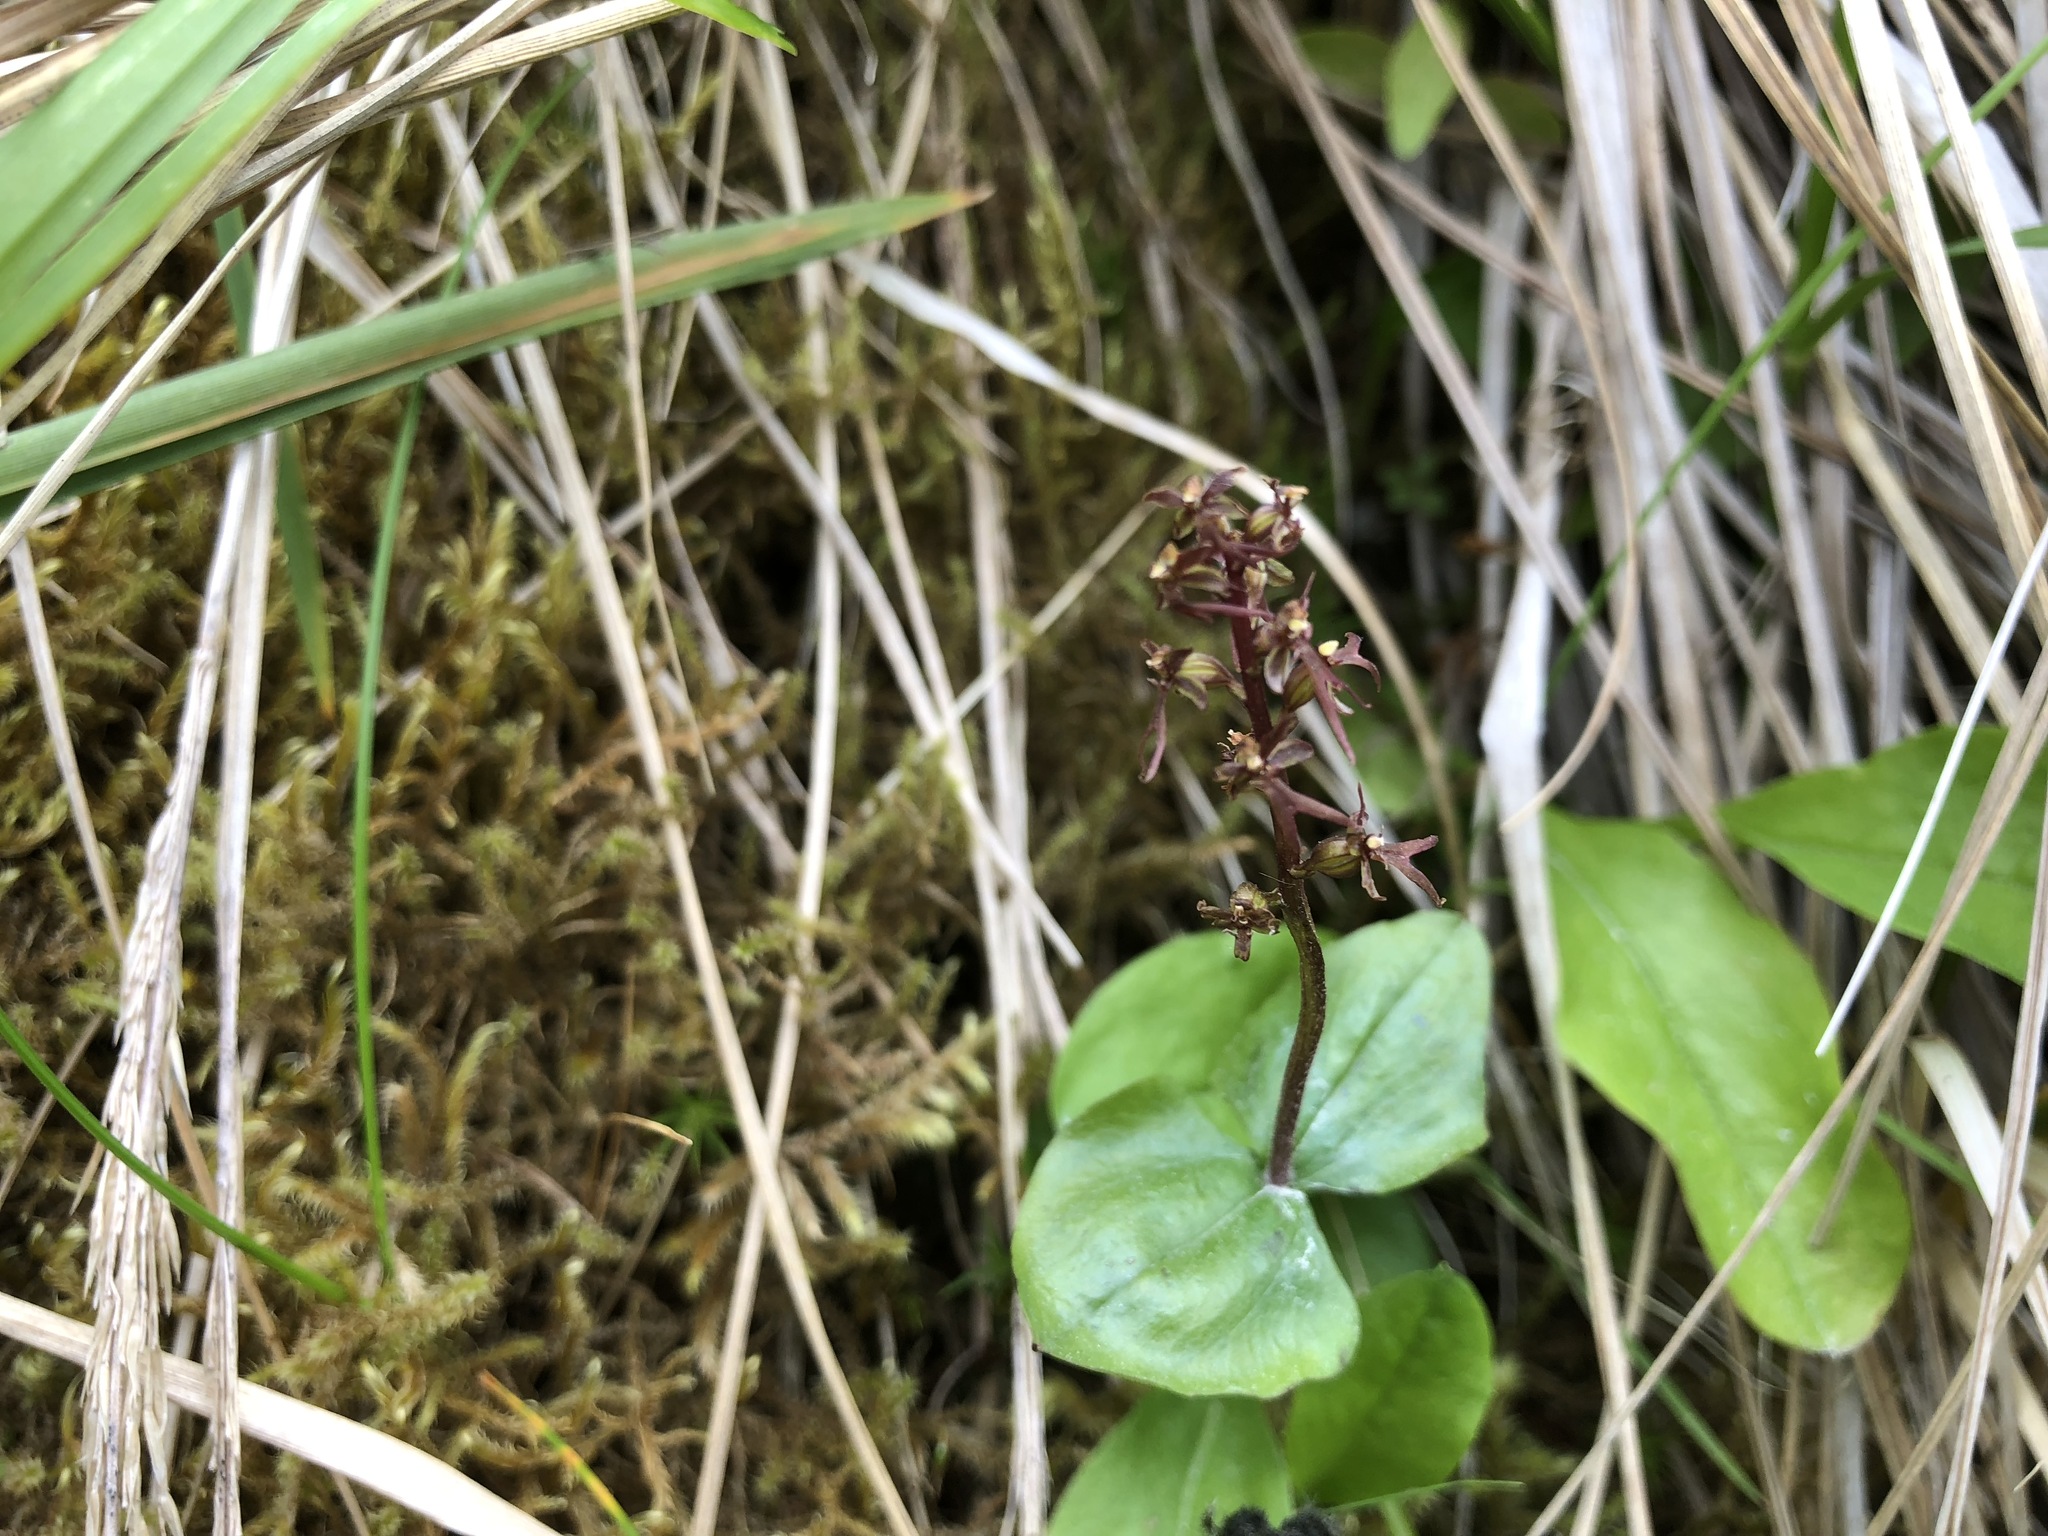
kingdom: Plantae
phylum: Tracheophyta
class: Liliopsida
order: Asparagales
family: Orchidaceae
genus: Neottia
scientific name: Neottia cordata
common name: Lesser twayblade
